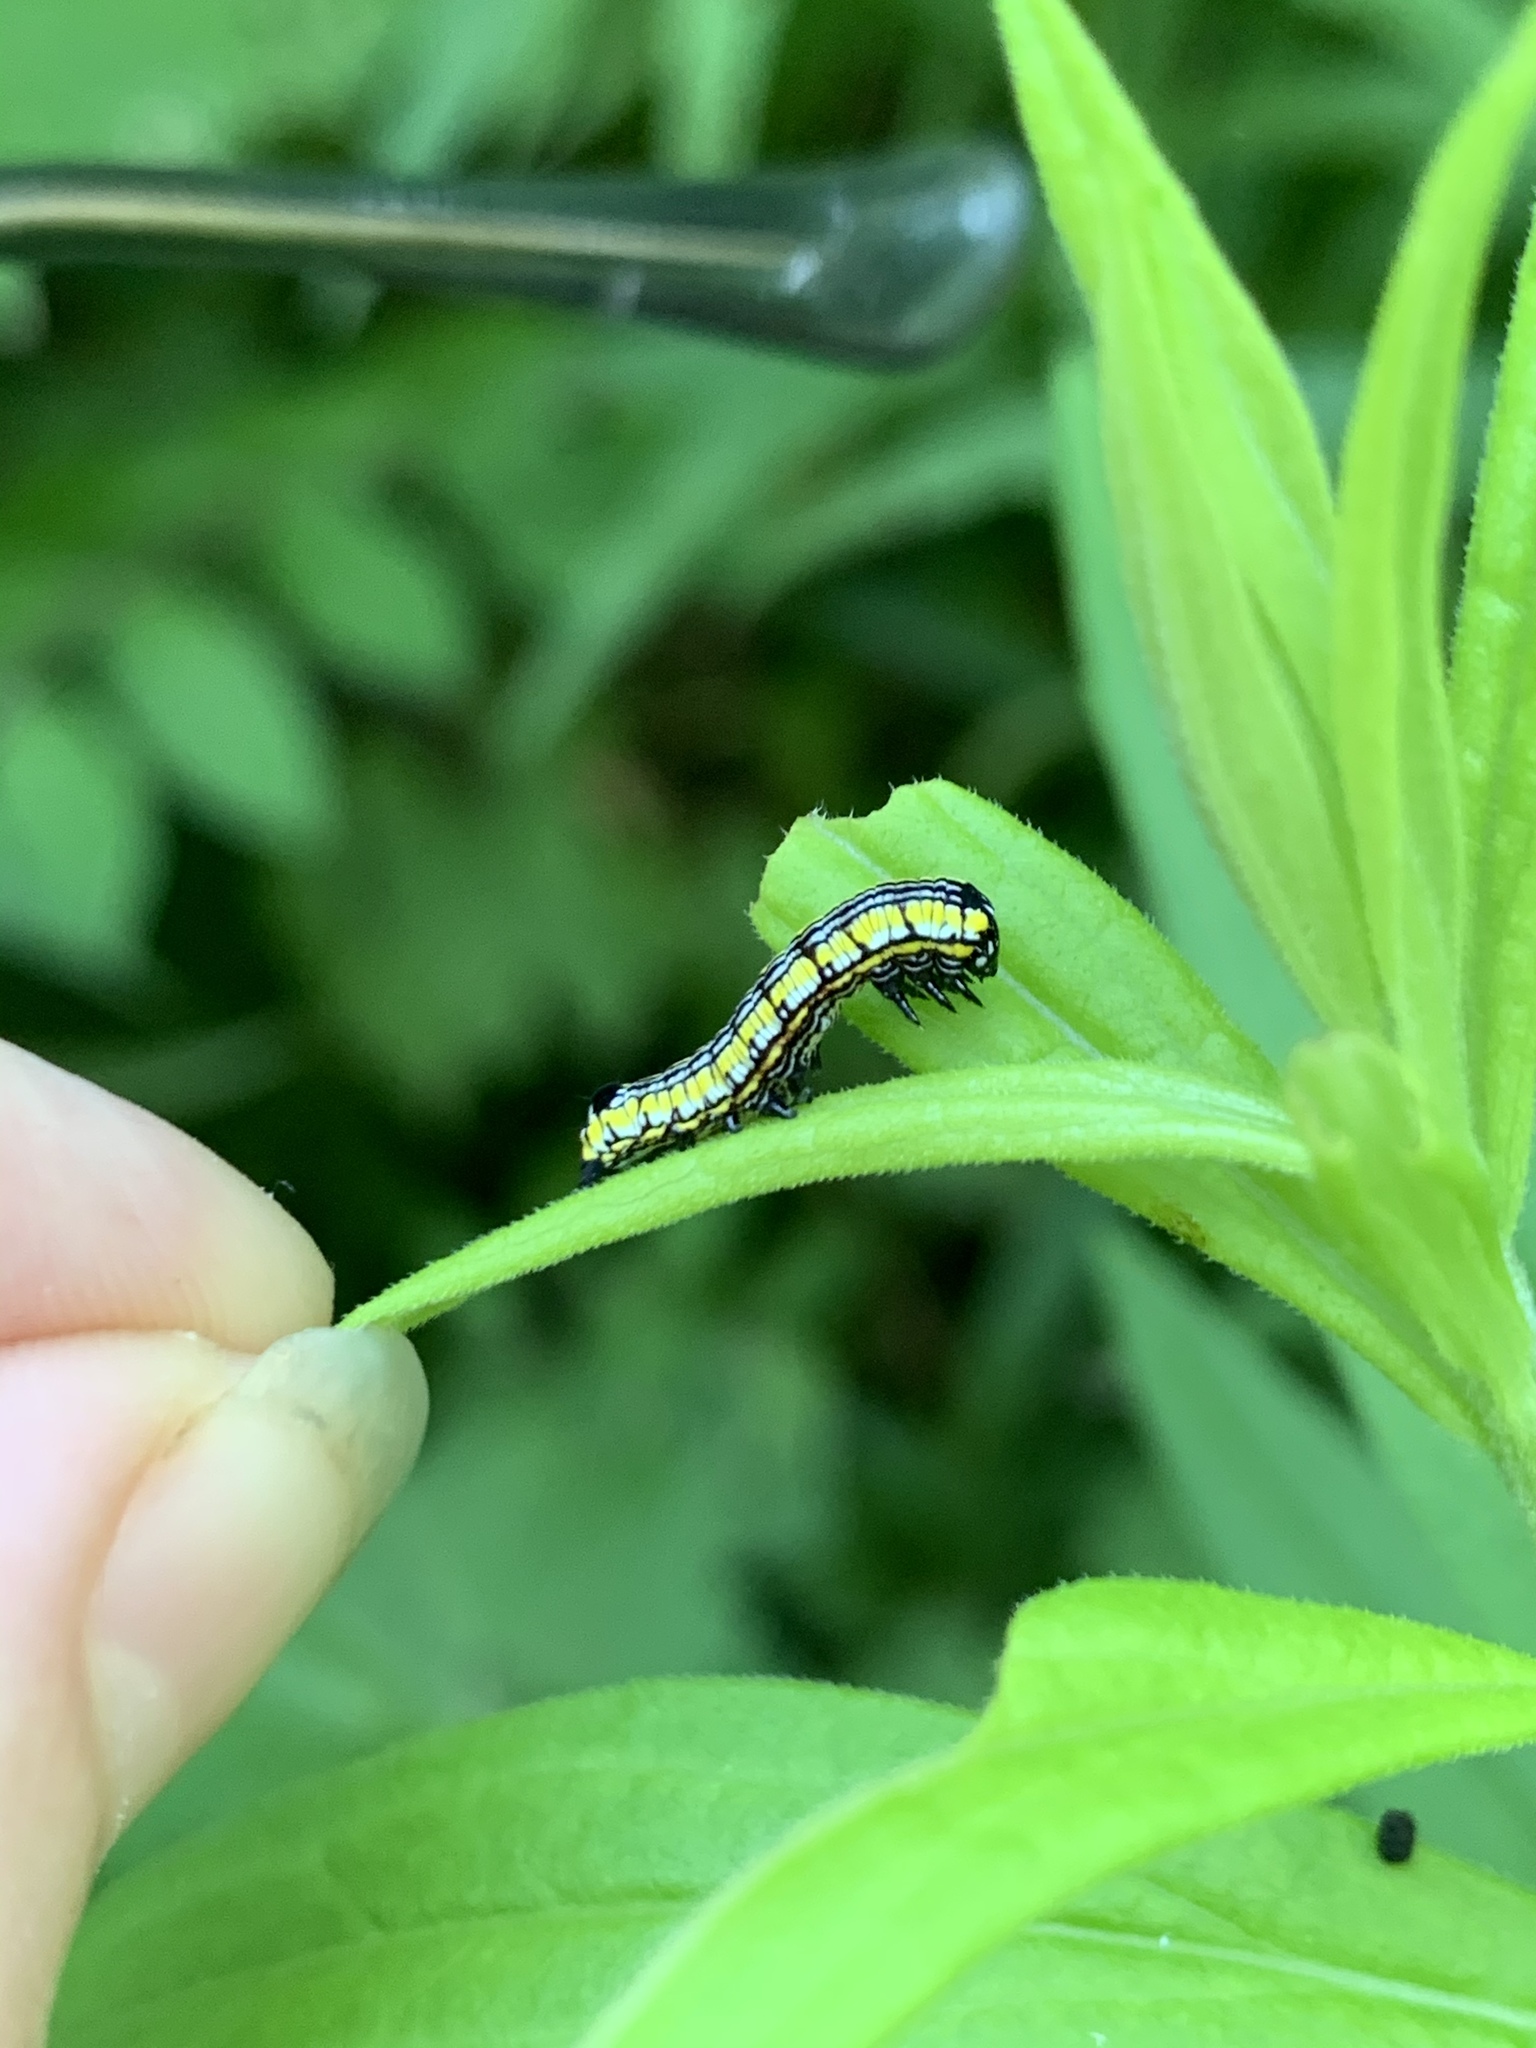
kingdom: Animalia
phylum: Arthropoda
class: Insecta
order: Lepidoptera
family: Noctuidae
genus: Cucullia
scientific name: Cucullia convexipennis
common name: Brown-hooded owlet
